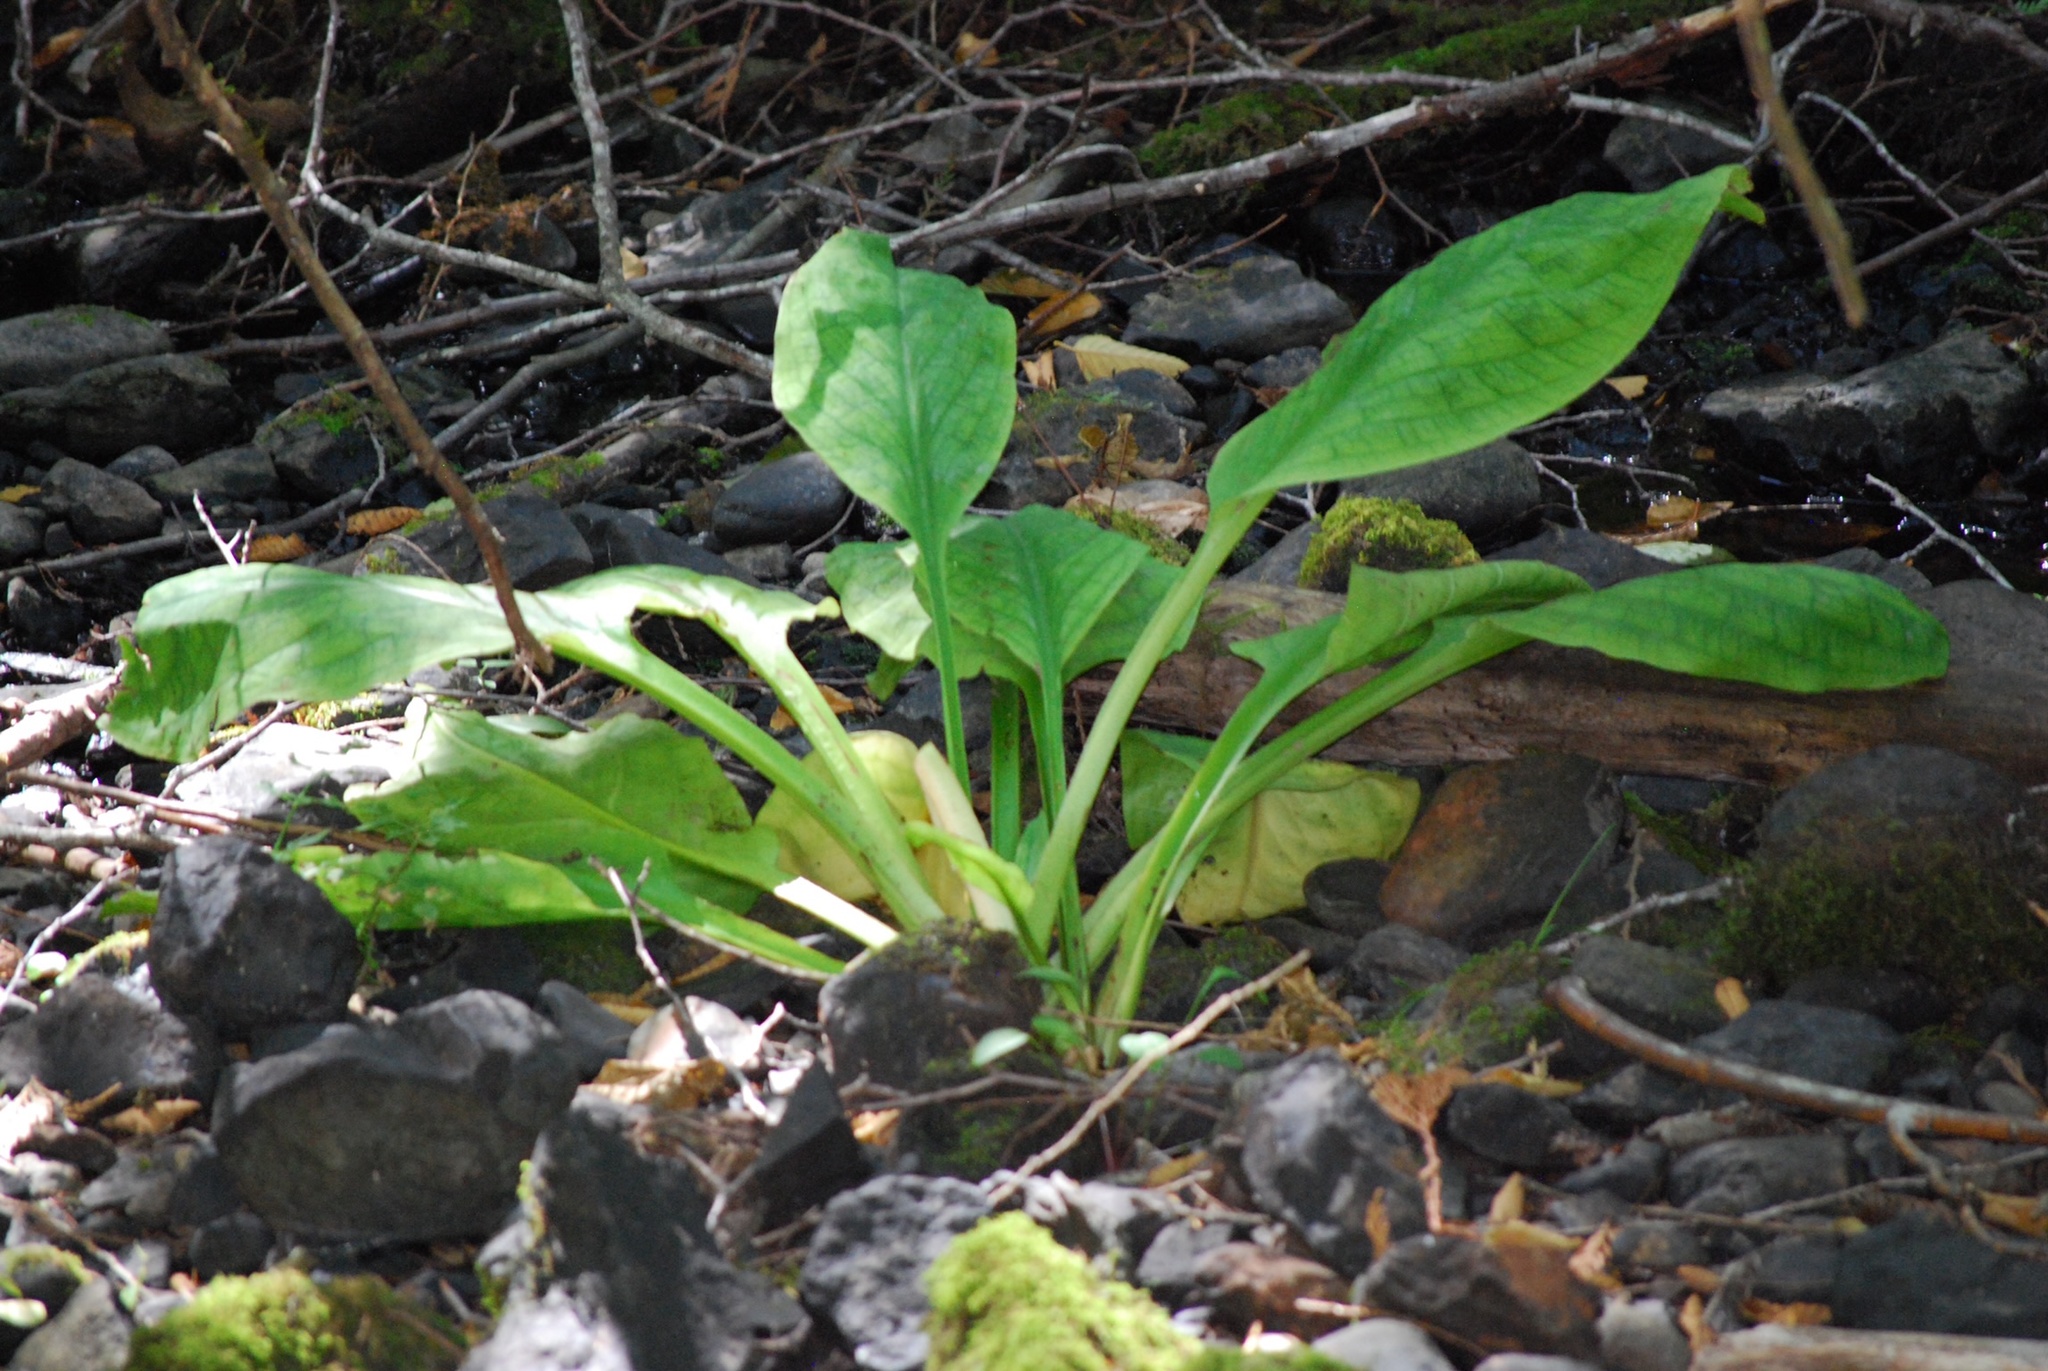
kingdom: Plantae
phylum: Tracheophyta
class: Liliopsida
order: Alismatales
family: Araceae
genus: Lysichiton
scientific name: Lysichiton americanus
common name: American skunk cabbage
